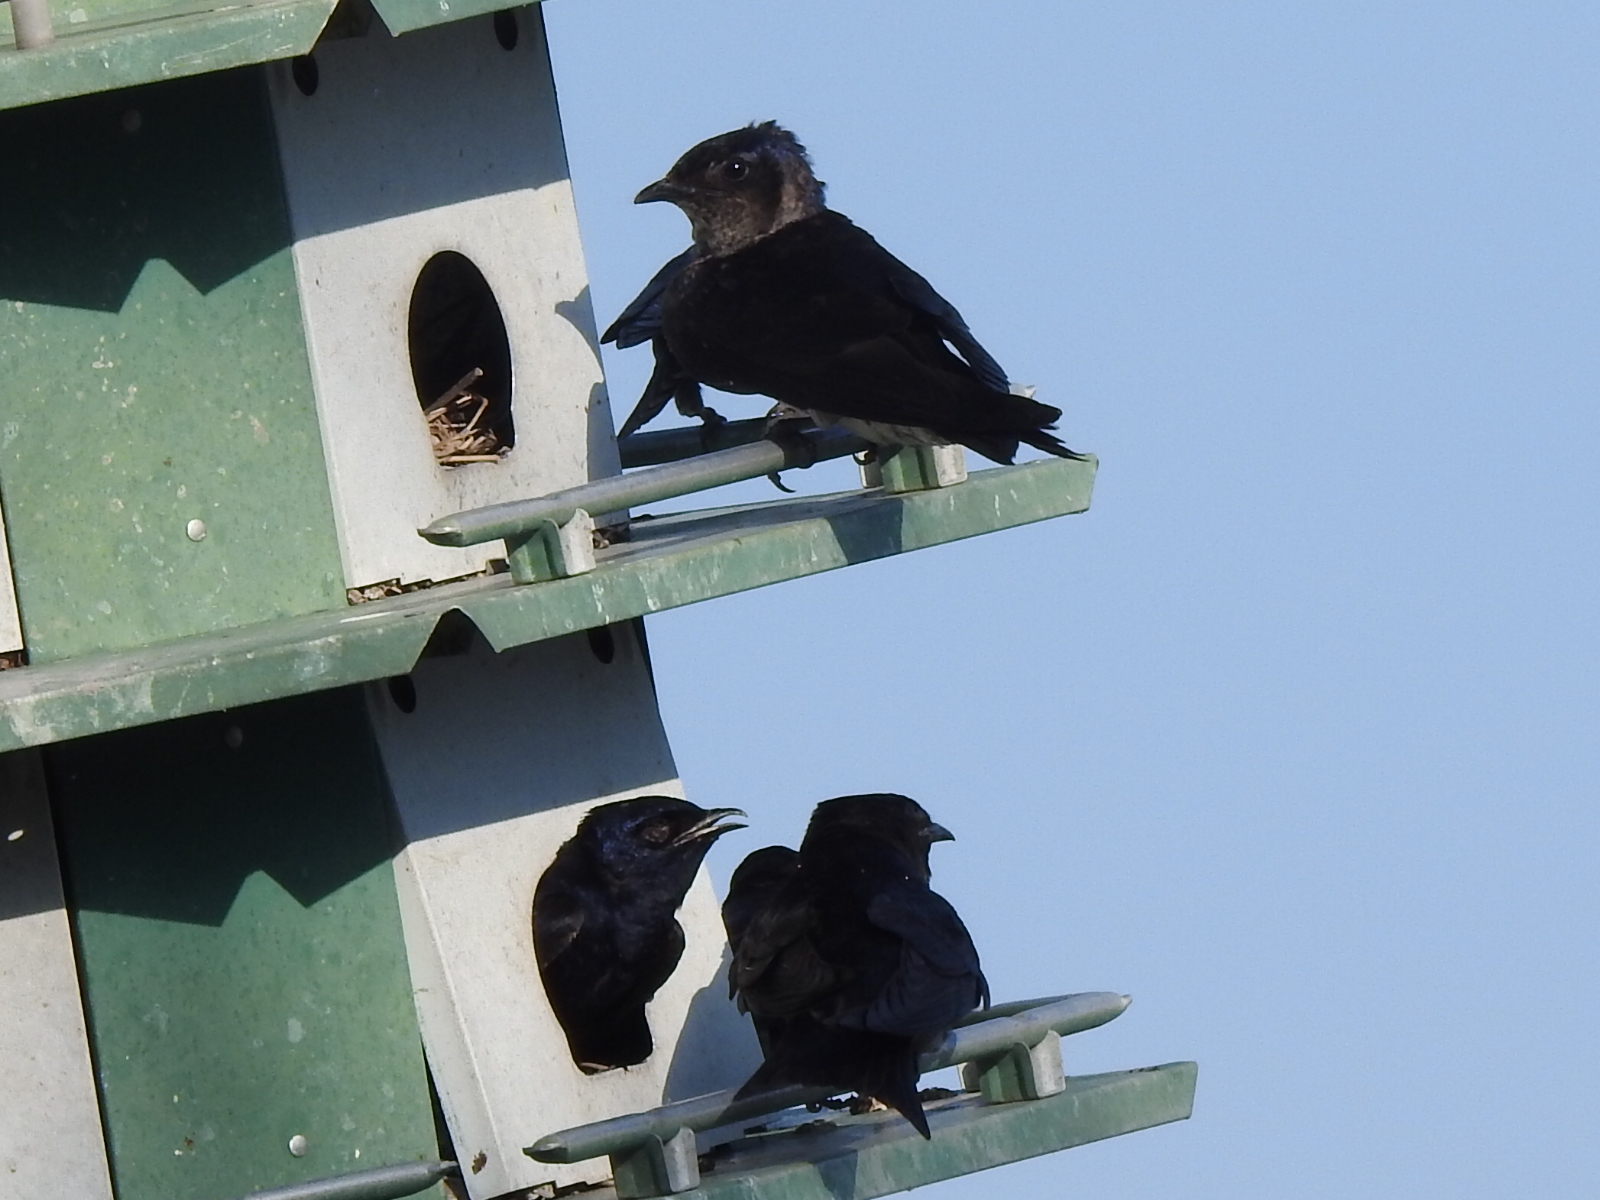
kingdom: Animalia
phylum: Chordata
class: Aves
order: Passeriformes
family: Hirundinidae
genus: Progne
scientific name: Progne subis
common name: Purple martin
